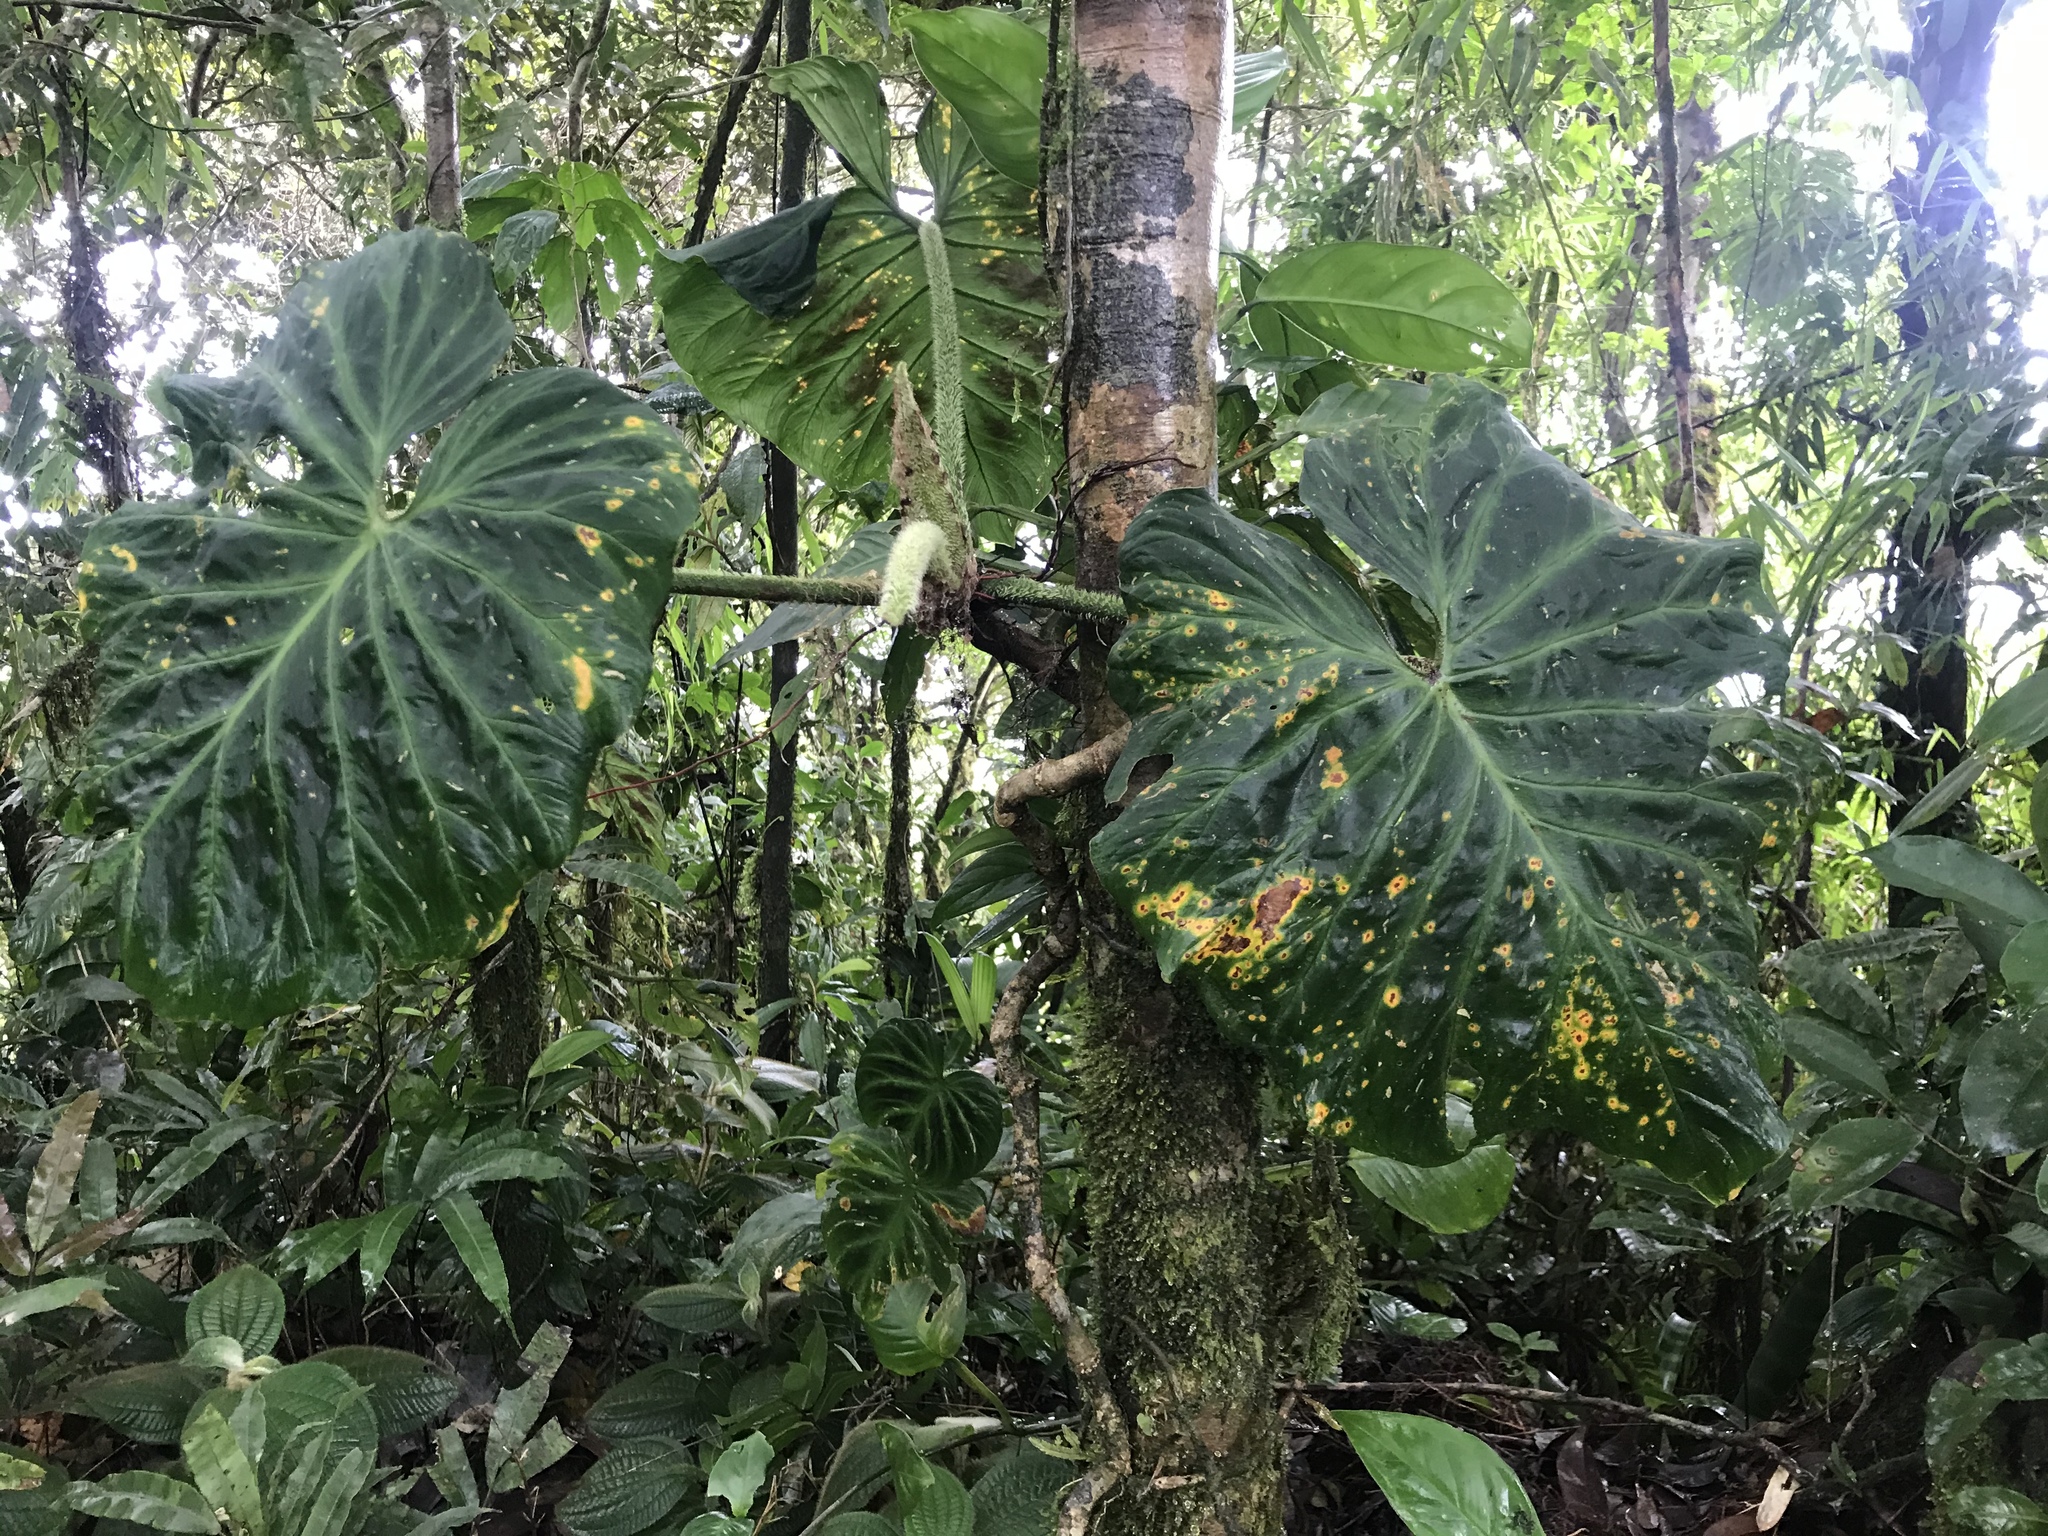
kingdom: Plantae
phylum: Tracheophyta
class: Liliopsida
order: Alismatales
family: Araceae
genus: Philodendron
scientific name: Philodendron verrucosum
